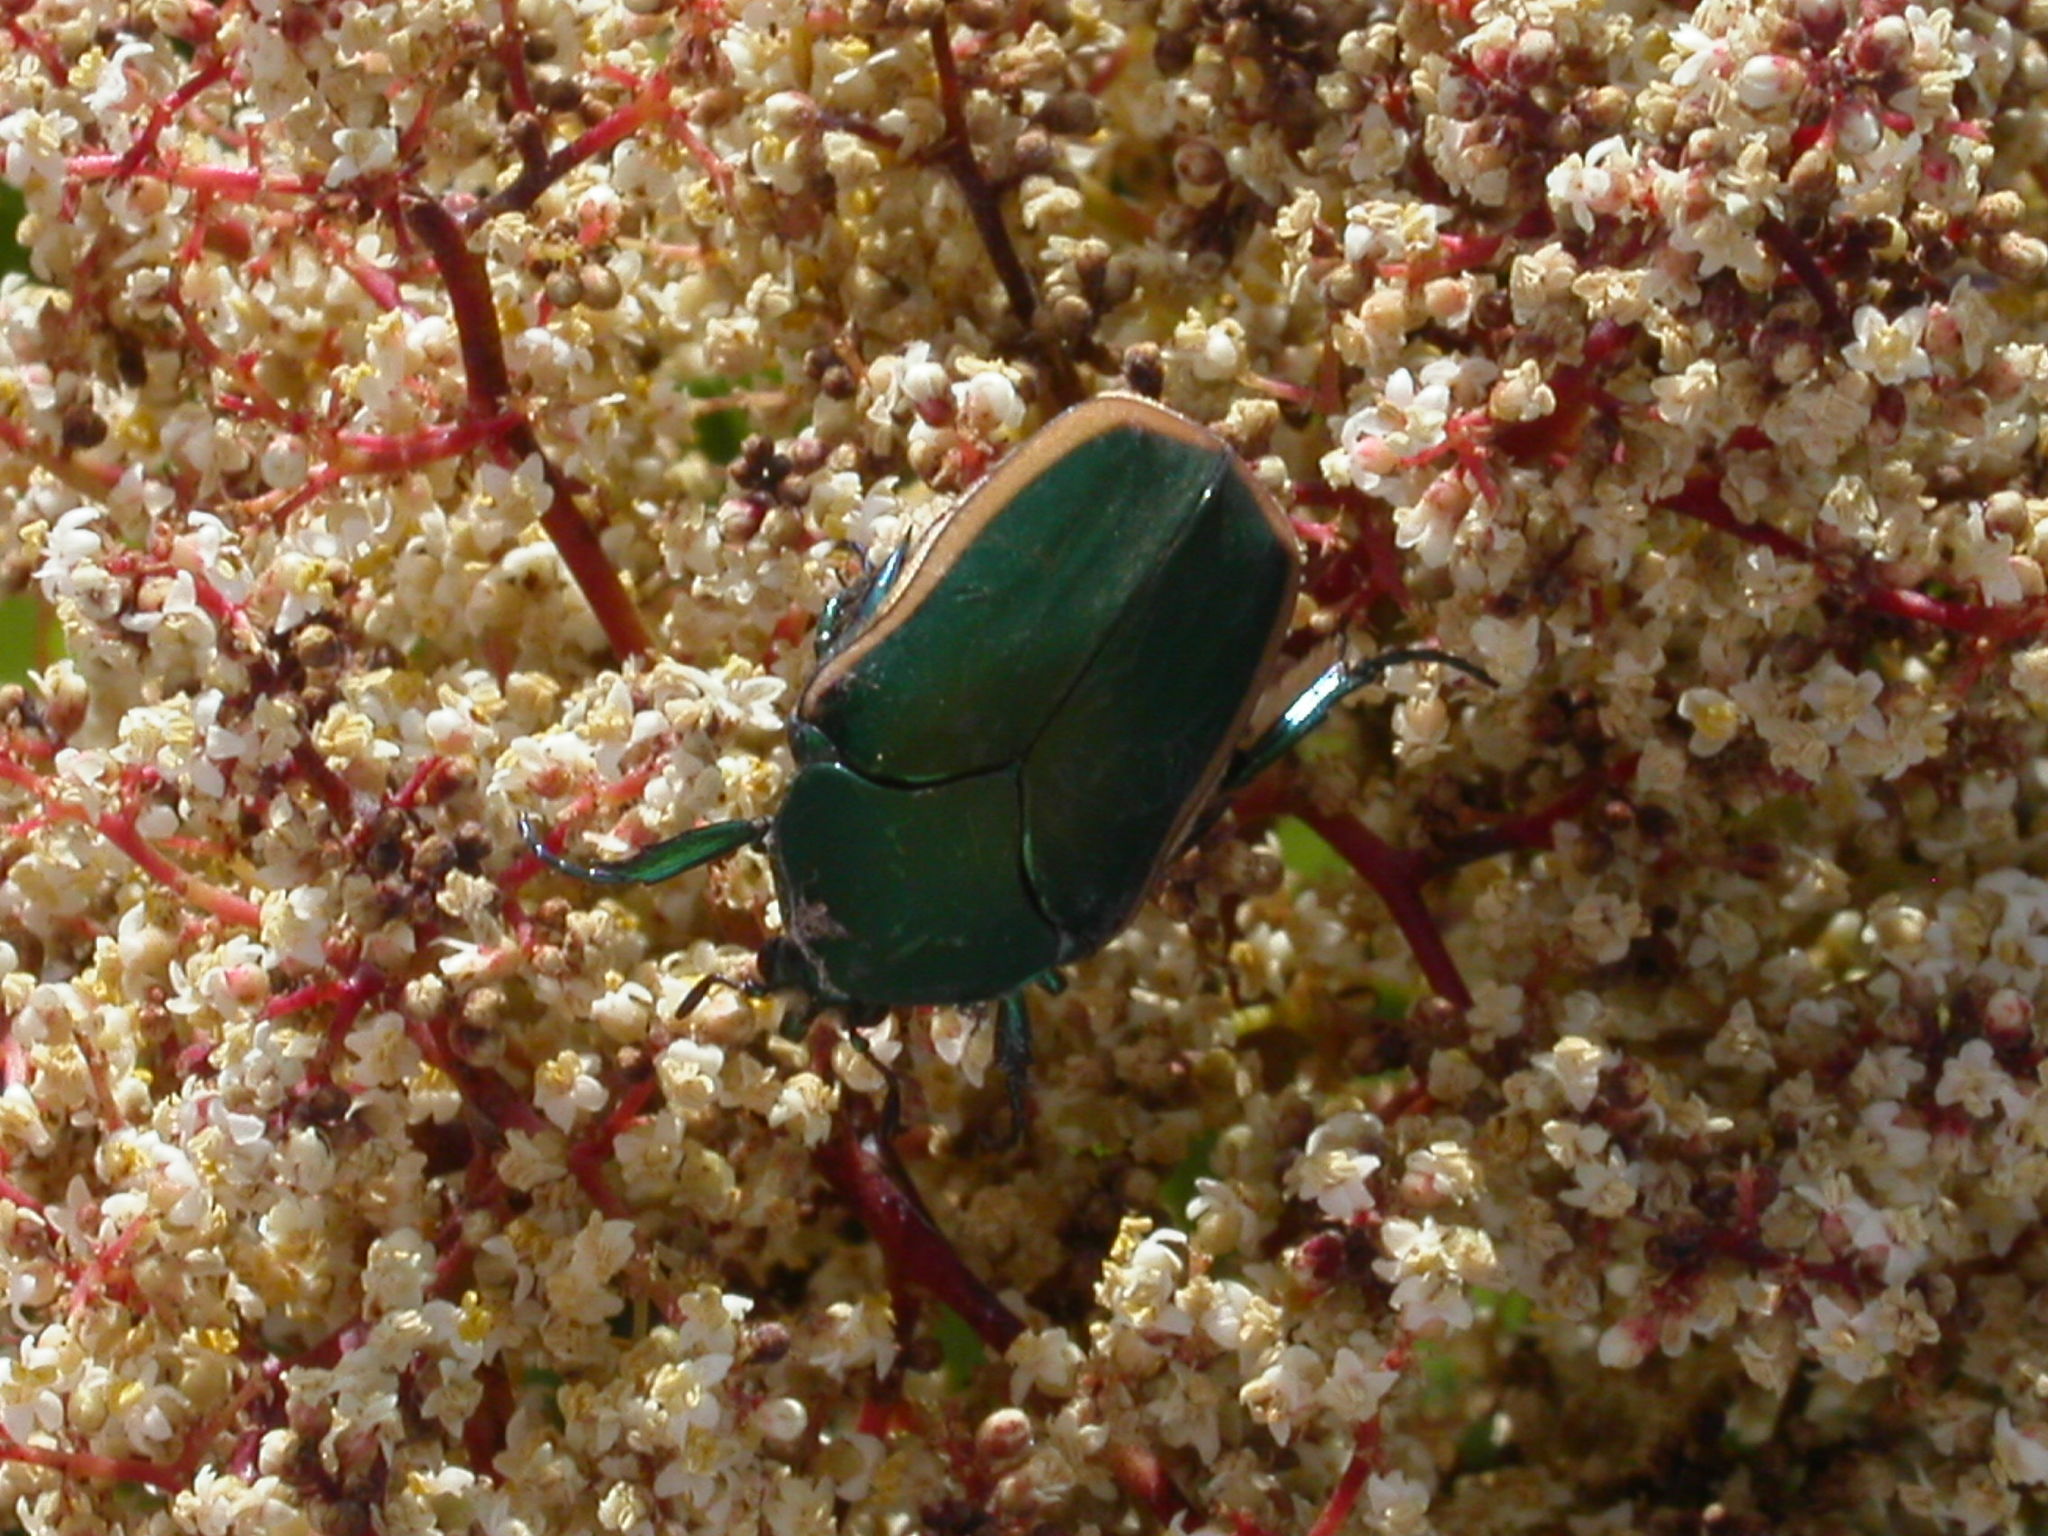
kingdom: Animalia
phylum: Arthropoda
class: Insecta
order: Coleoptera
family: Scarabaeidae
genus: Cotinis
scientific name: Cotinis mutabilis
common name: Figeater beetle
